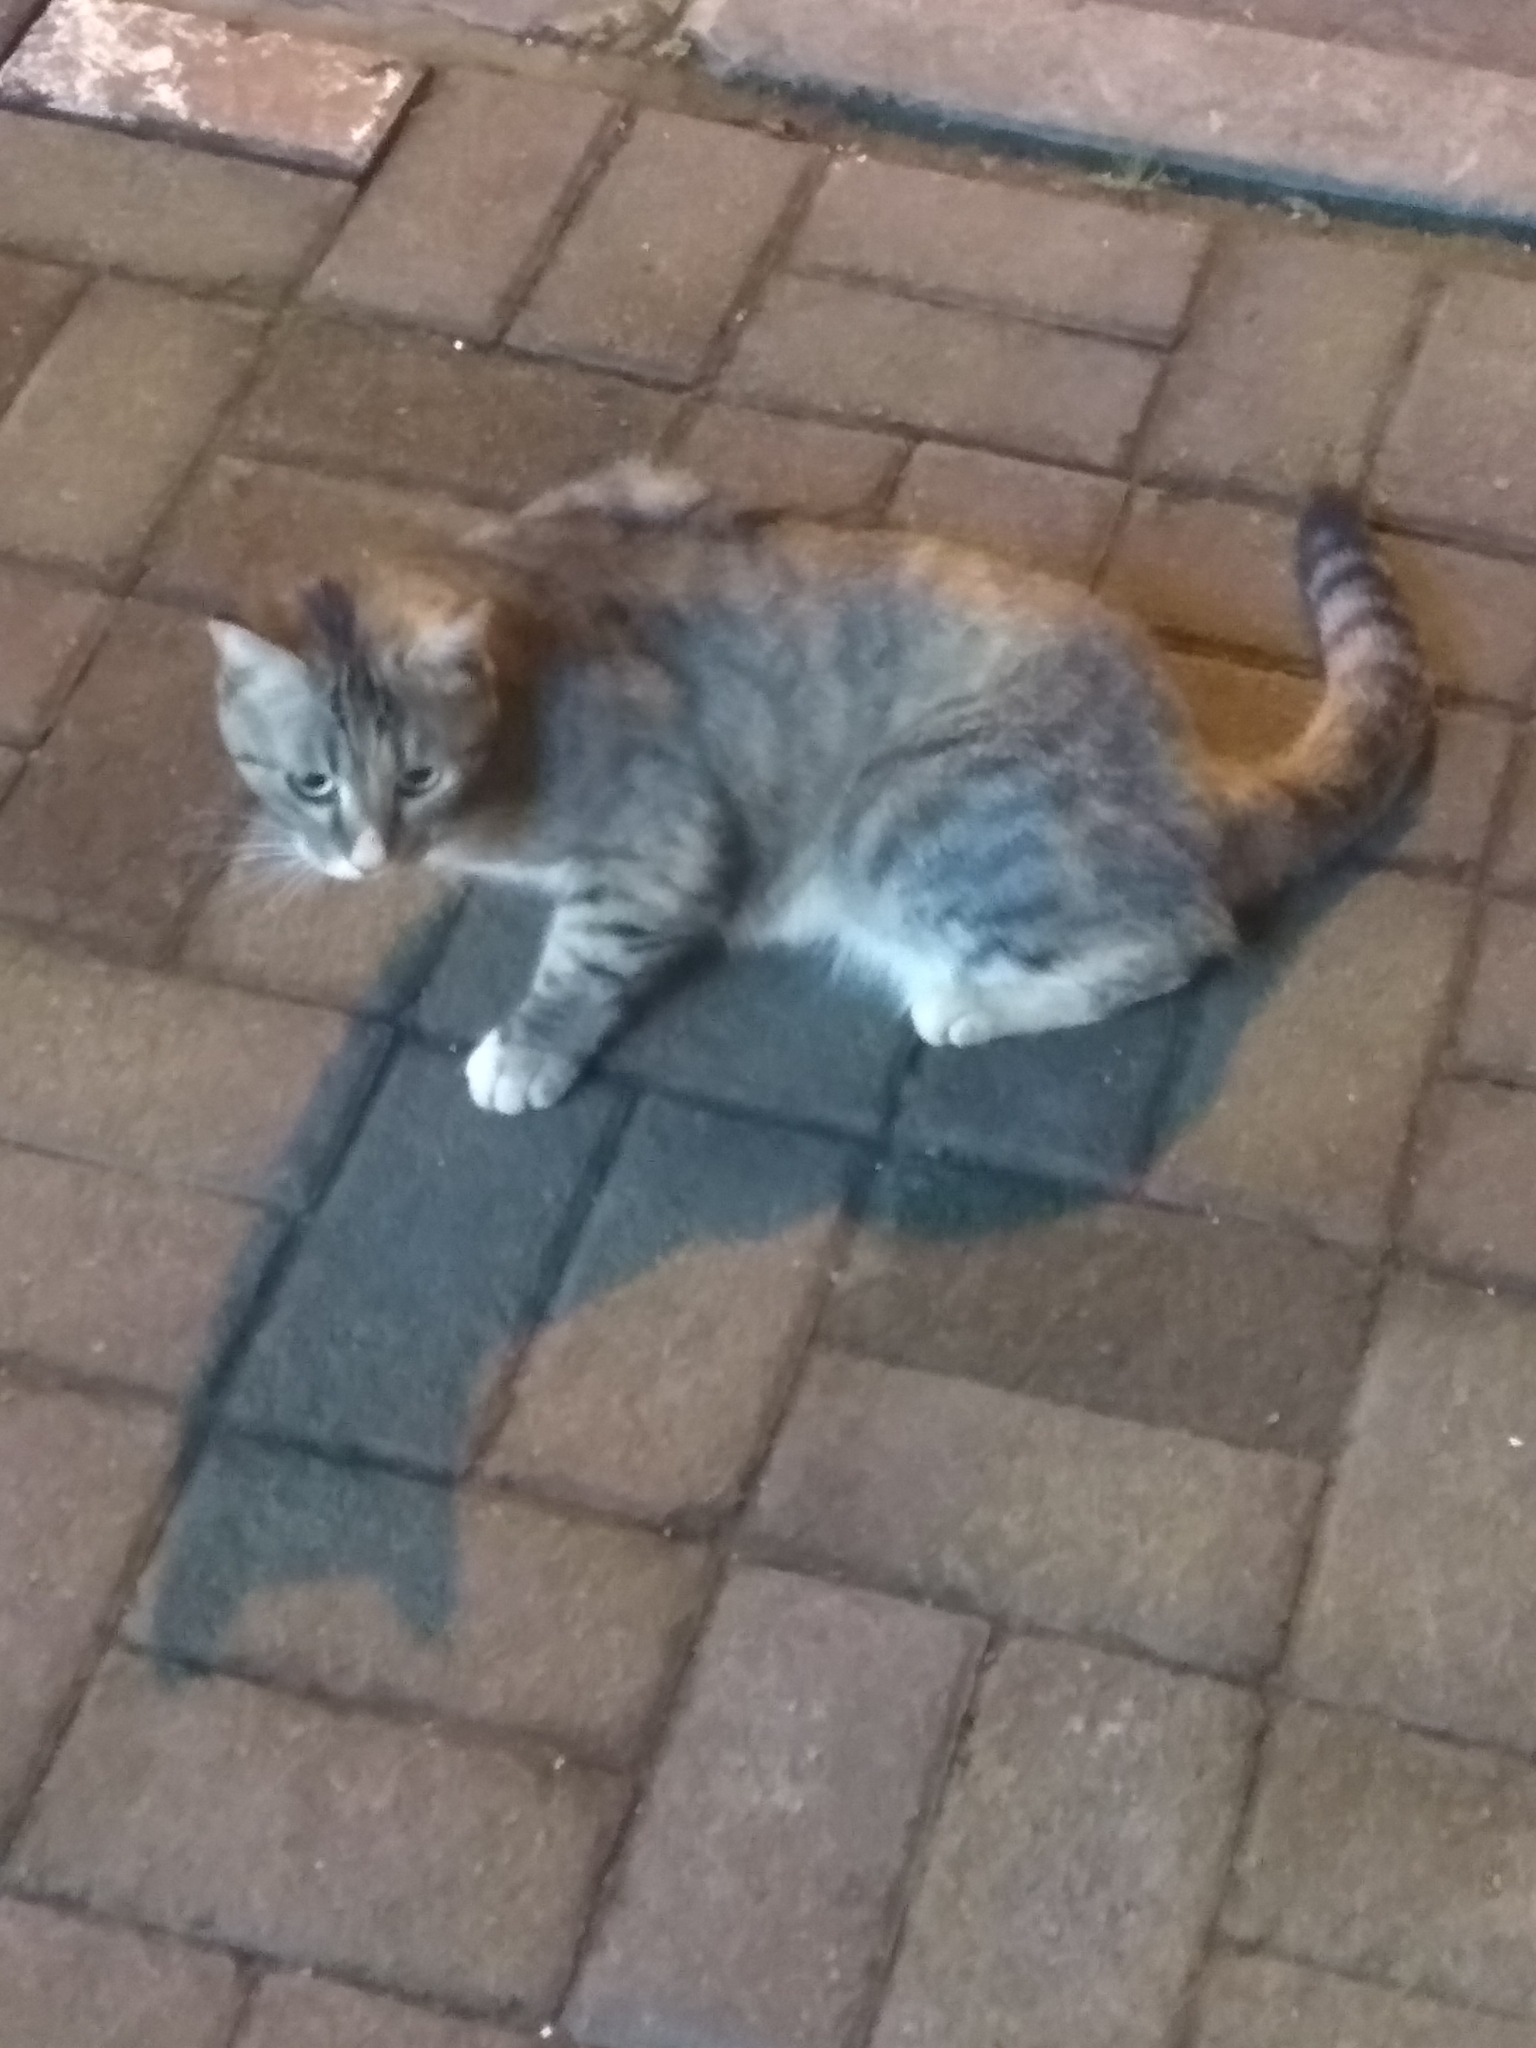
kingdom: Animalia
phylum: Chordata
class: Mammalia
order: Carnivora
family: Felidae
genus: Felis
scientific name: Felis catus
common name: Domestic cat
